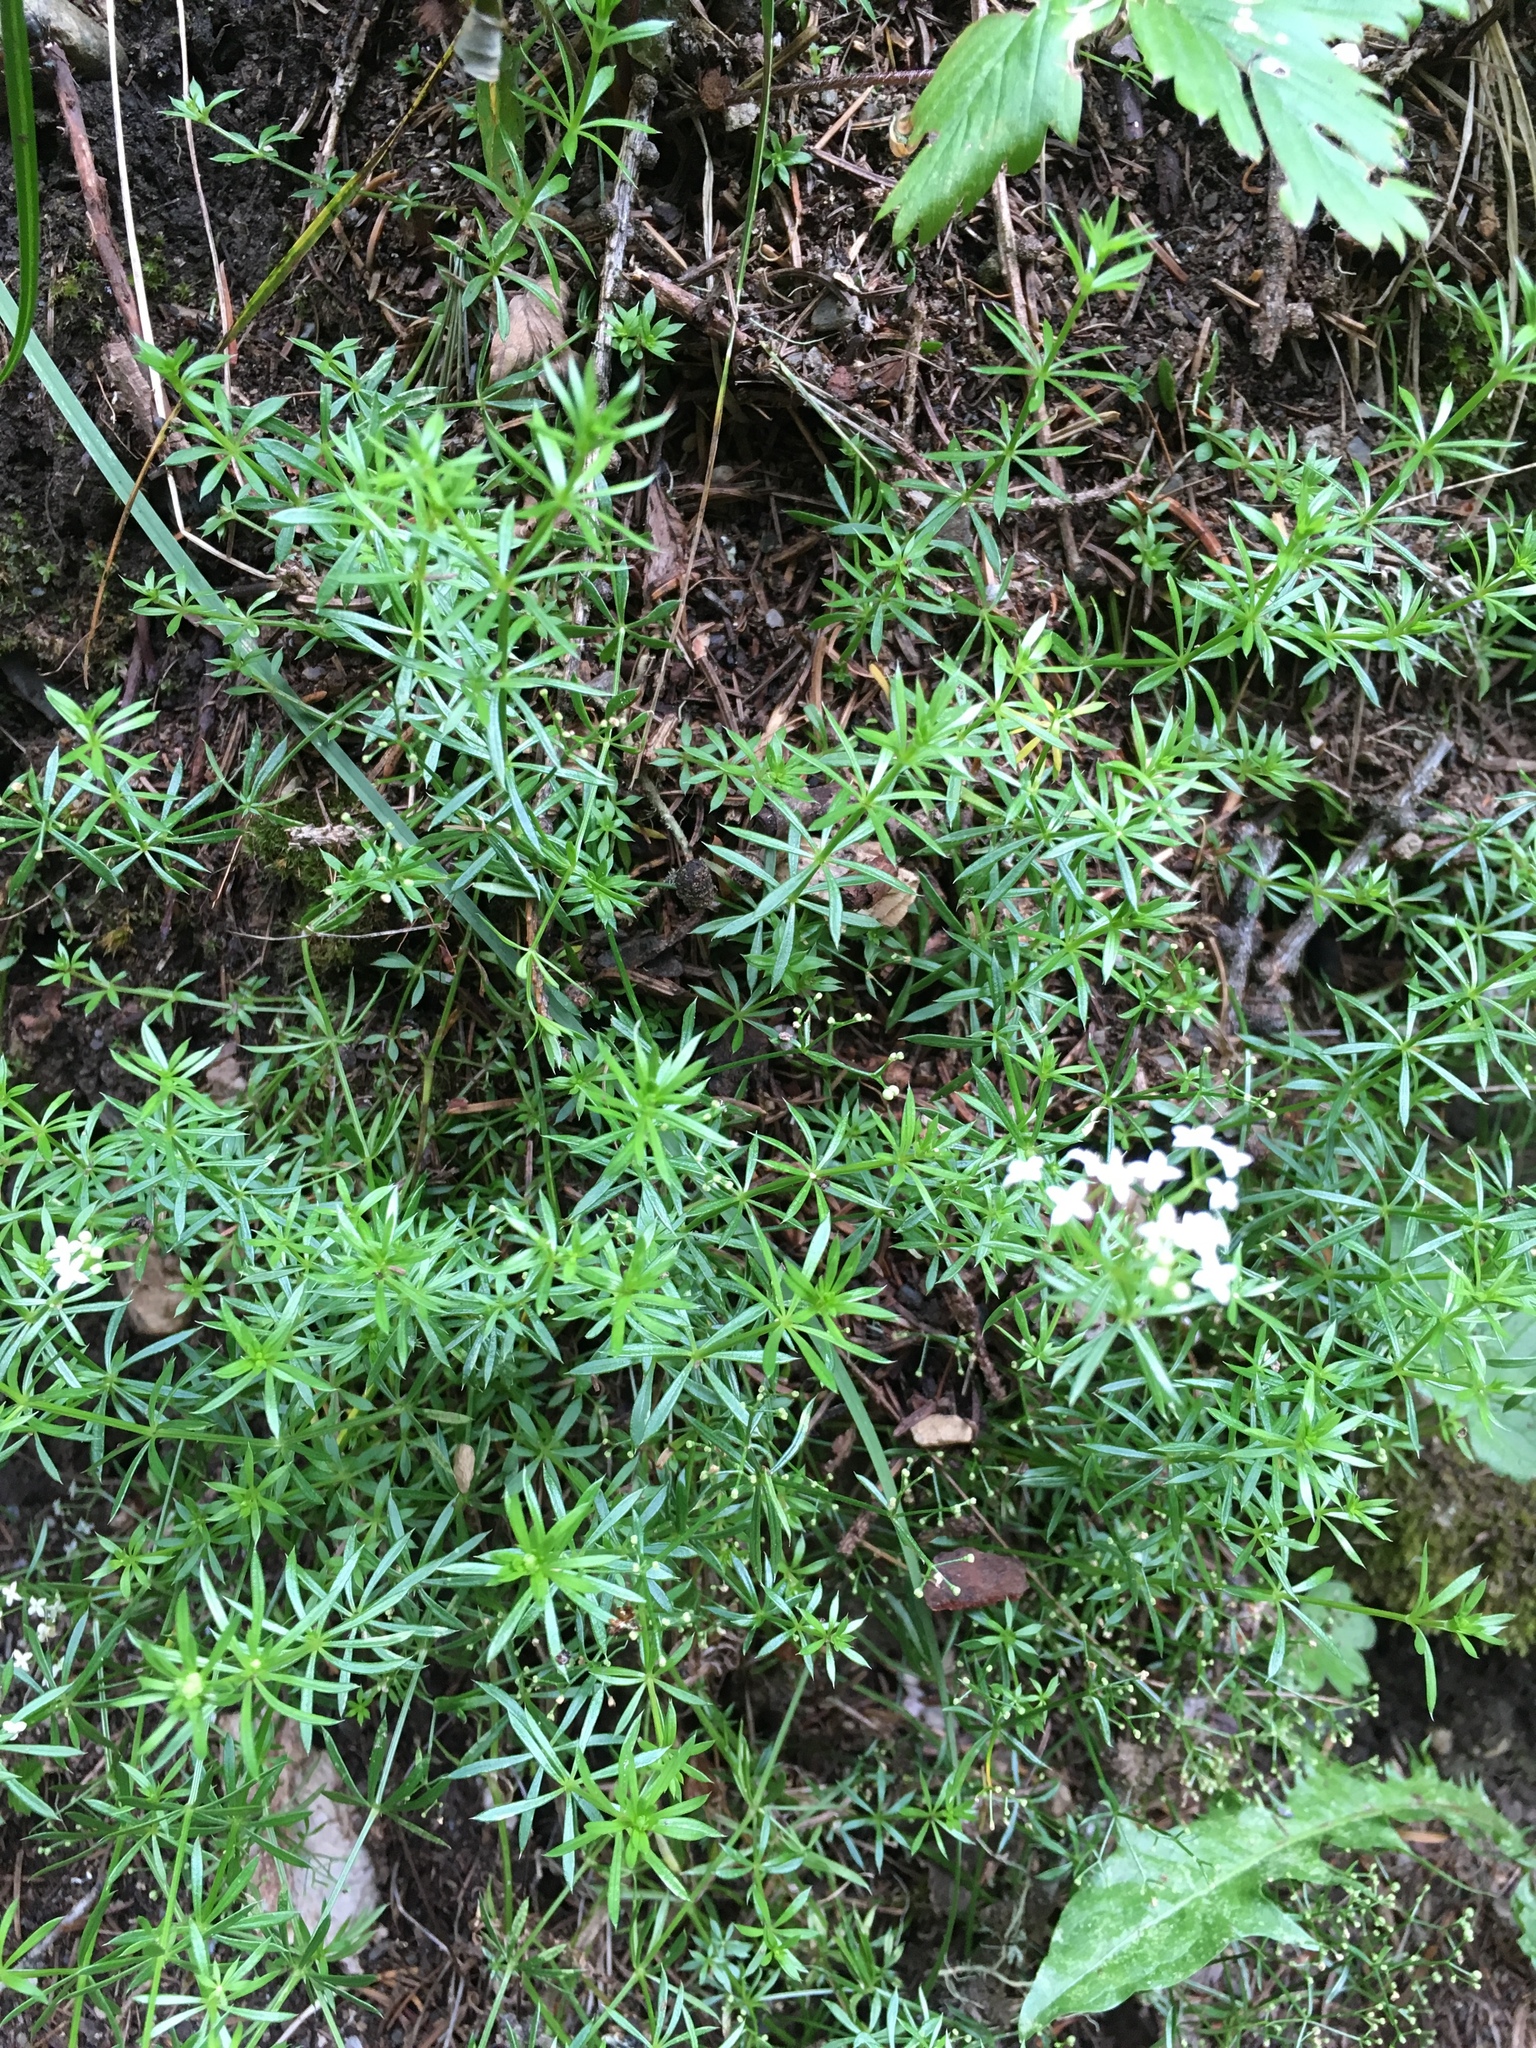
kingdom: Plantae
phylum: Tracheophyta
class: Magnoliopsida
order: Ericales
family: Ericaceae
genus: Erica
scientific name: Erica carnea
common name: Winter heath
